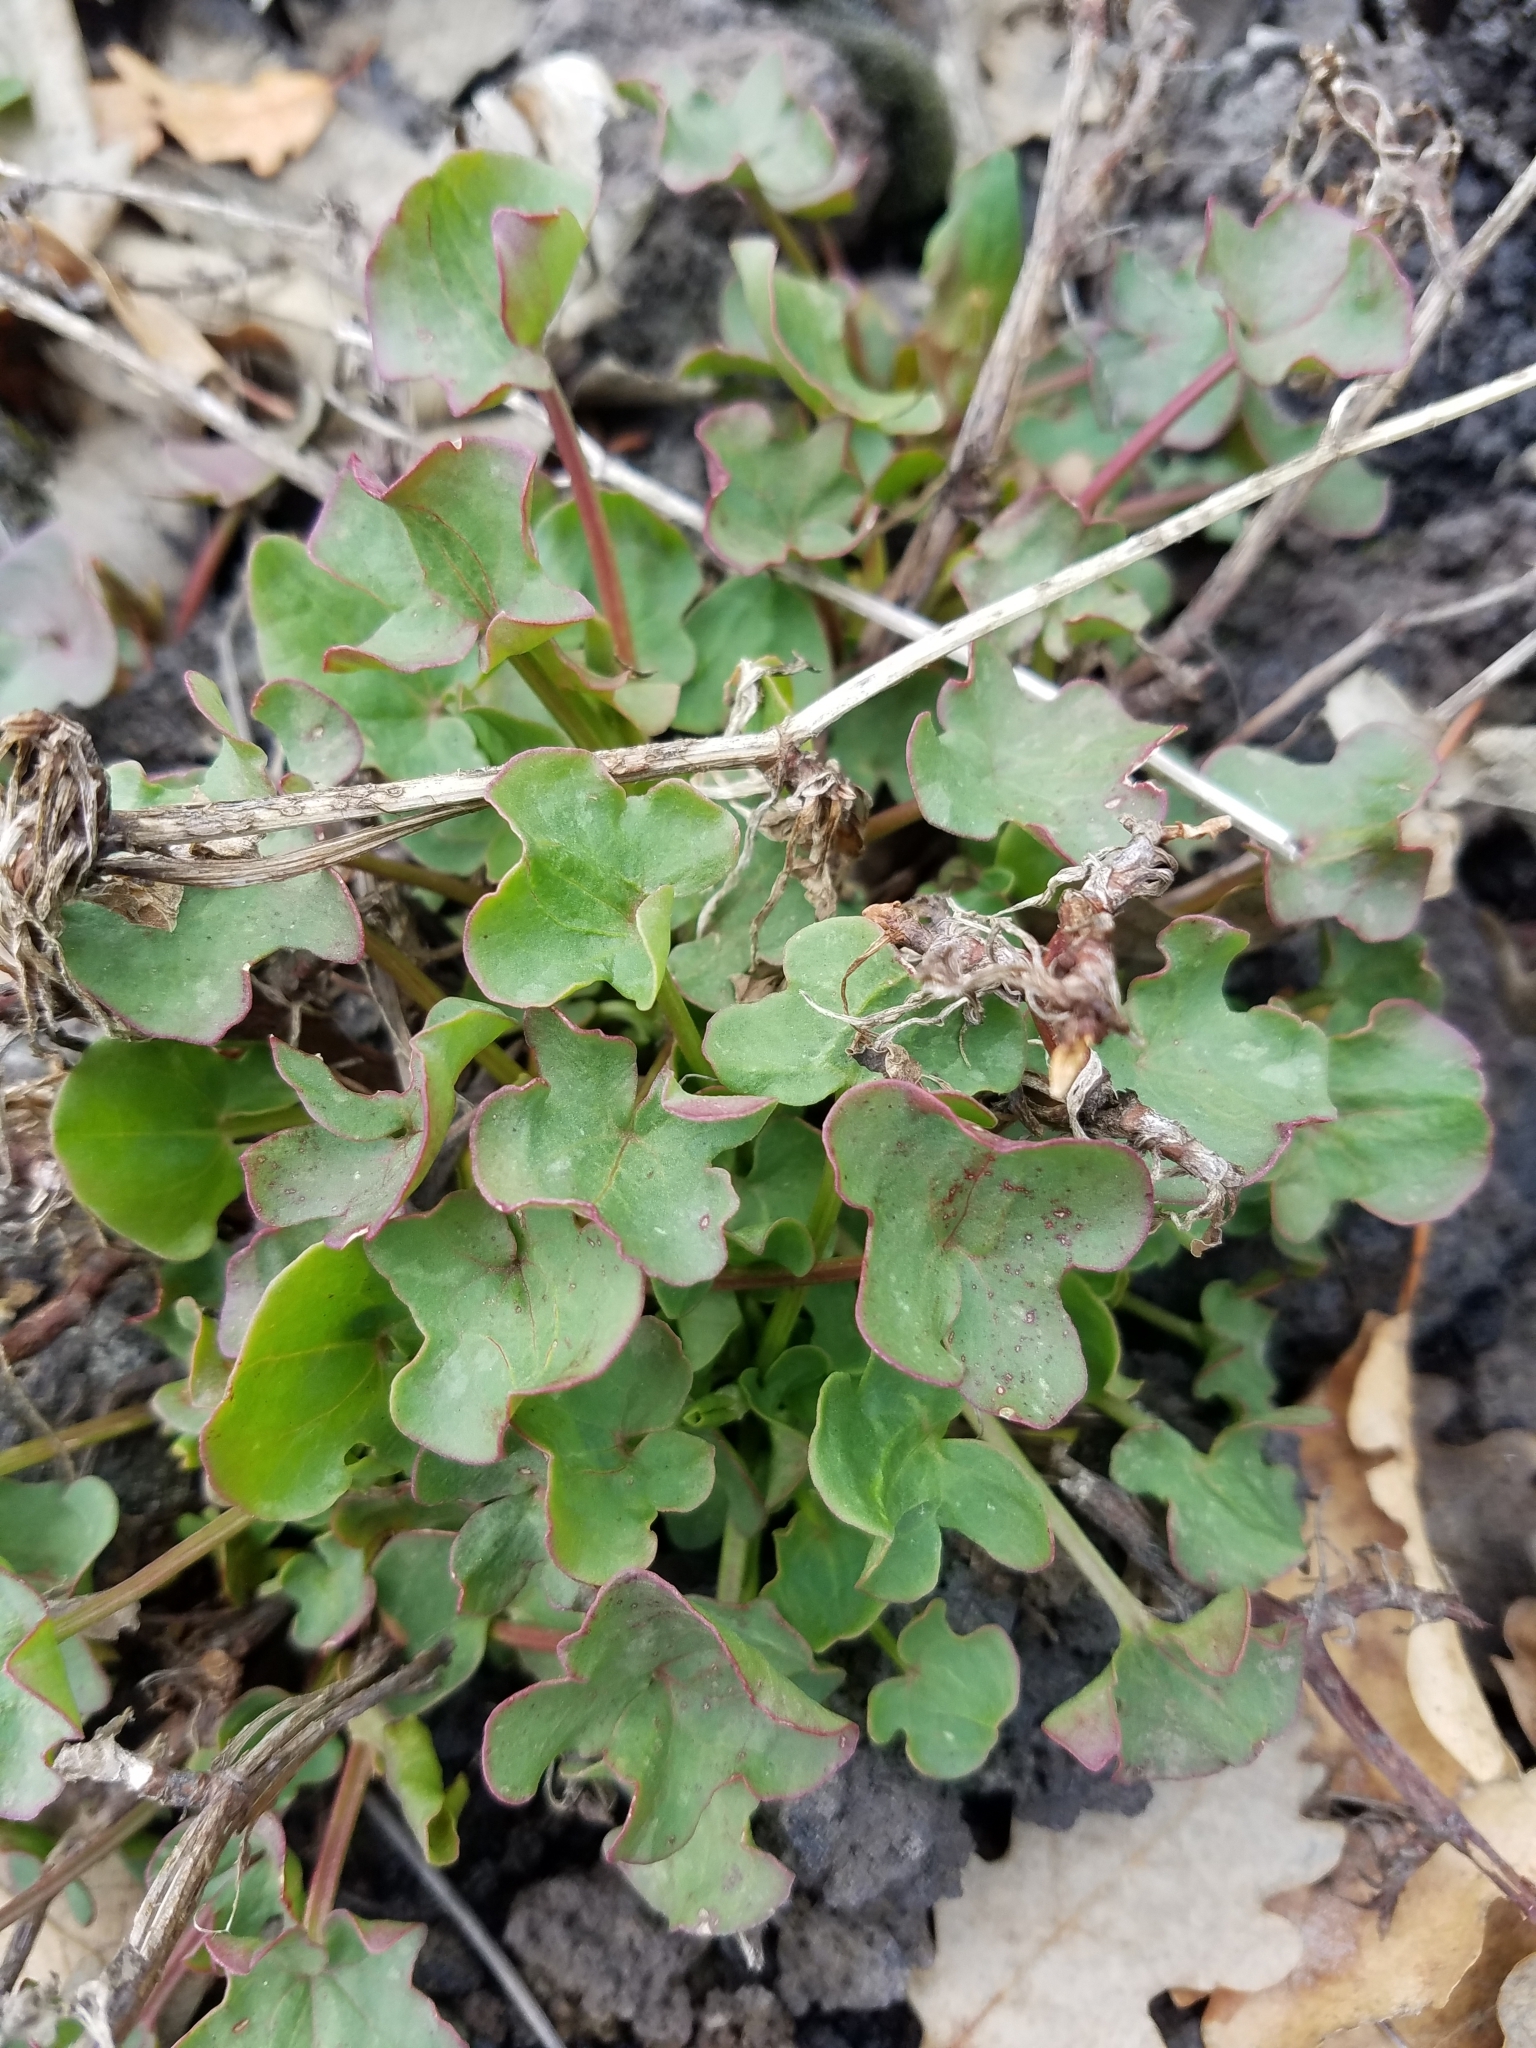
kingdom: Plantae
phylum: Tracheophyta
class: Magnoliopsida
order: Caryophyllales
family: Polygonaceae
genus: Rumex
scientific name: Rumex scutatus
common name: French sorrel
